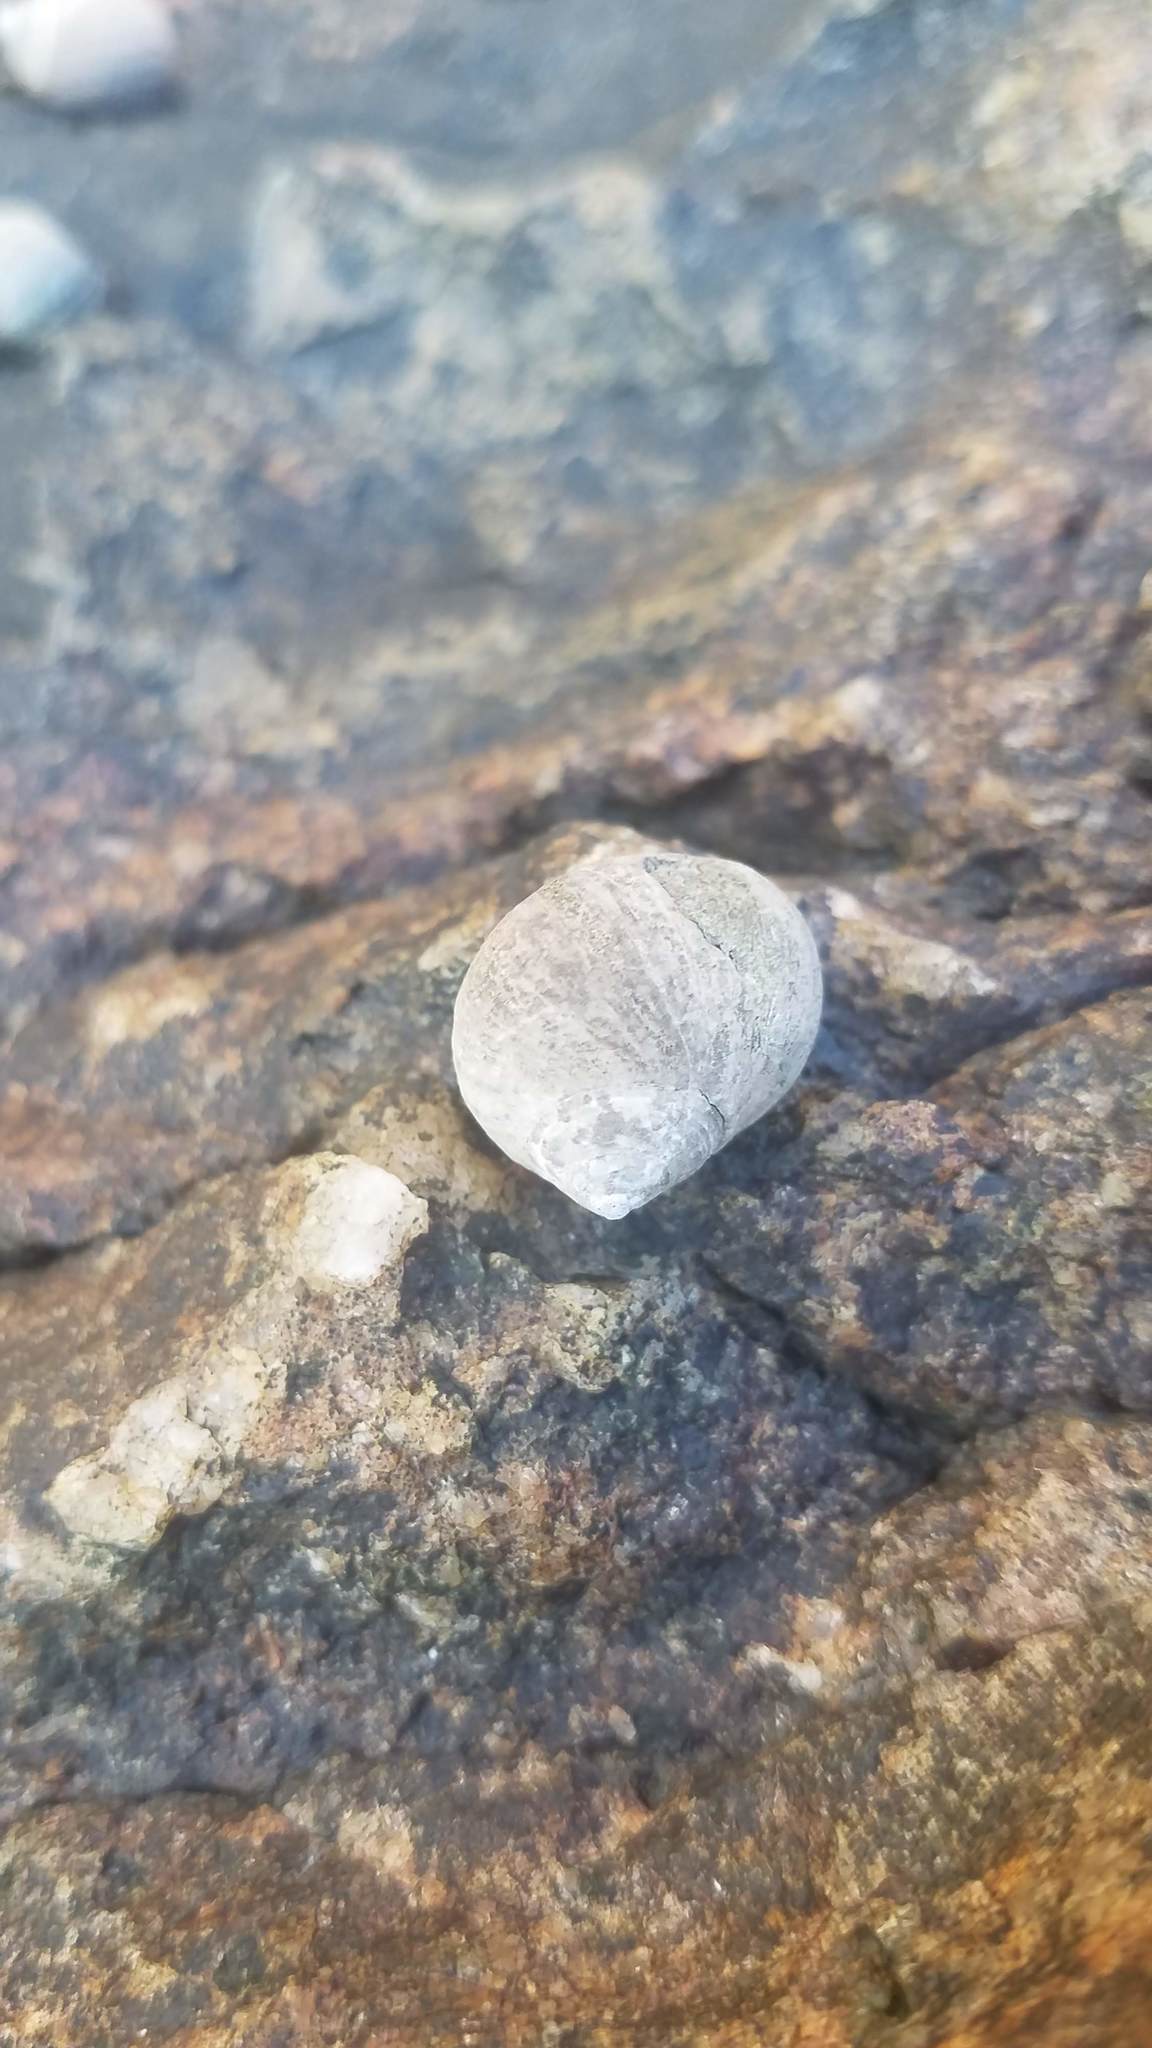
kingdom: Animalia
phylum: Mollusca
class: Gastropoda
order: Littorinimorpha
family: Littorinidae
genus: Littorina
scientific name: Littorina littorea
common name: Common periwinkle
